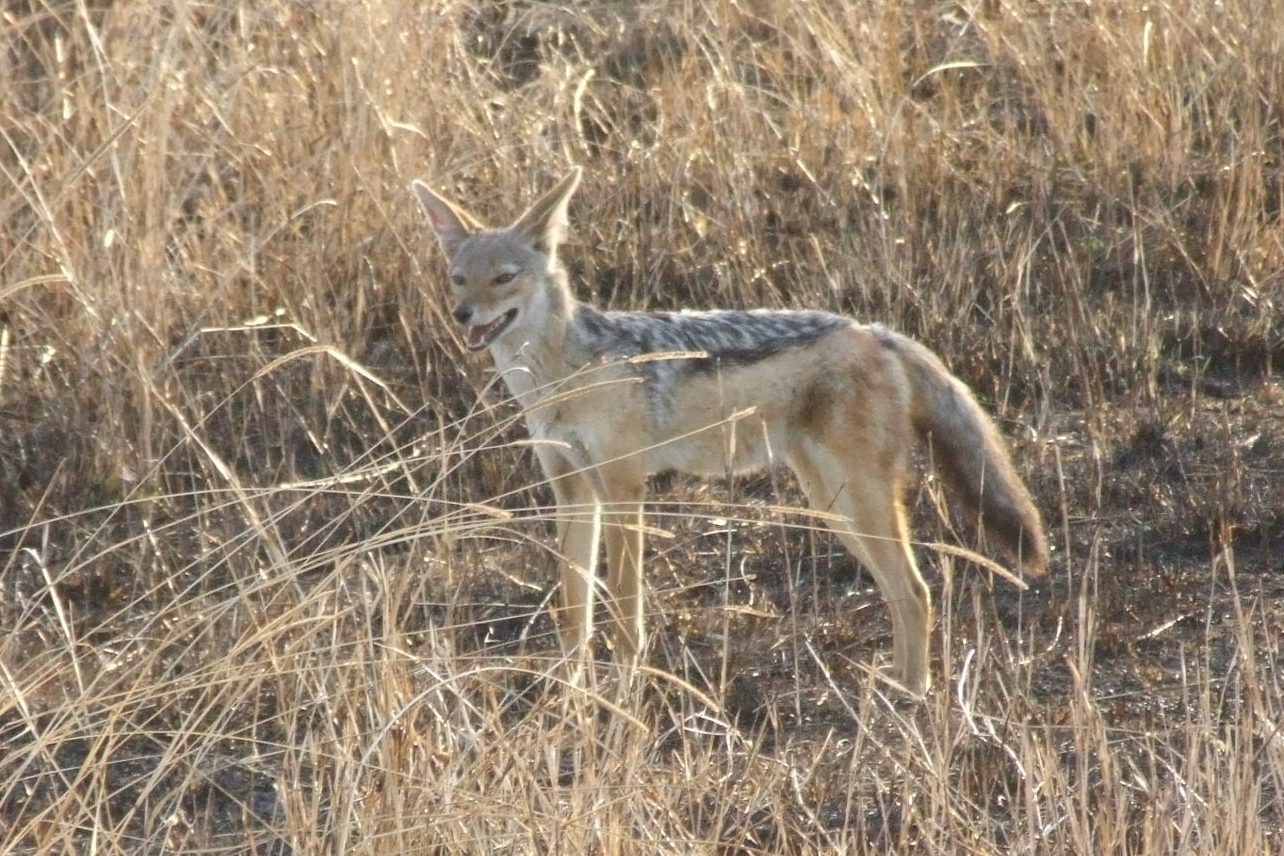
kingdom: Animalia
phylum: Chordata
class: Mammalia
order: Carnivora
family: Canidae
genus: Lupulella
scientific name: Lupulella
